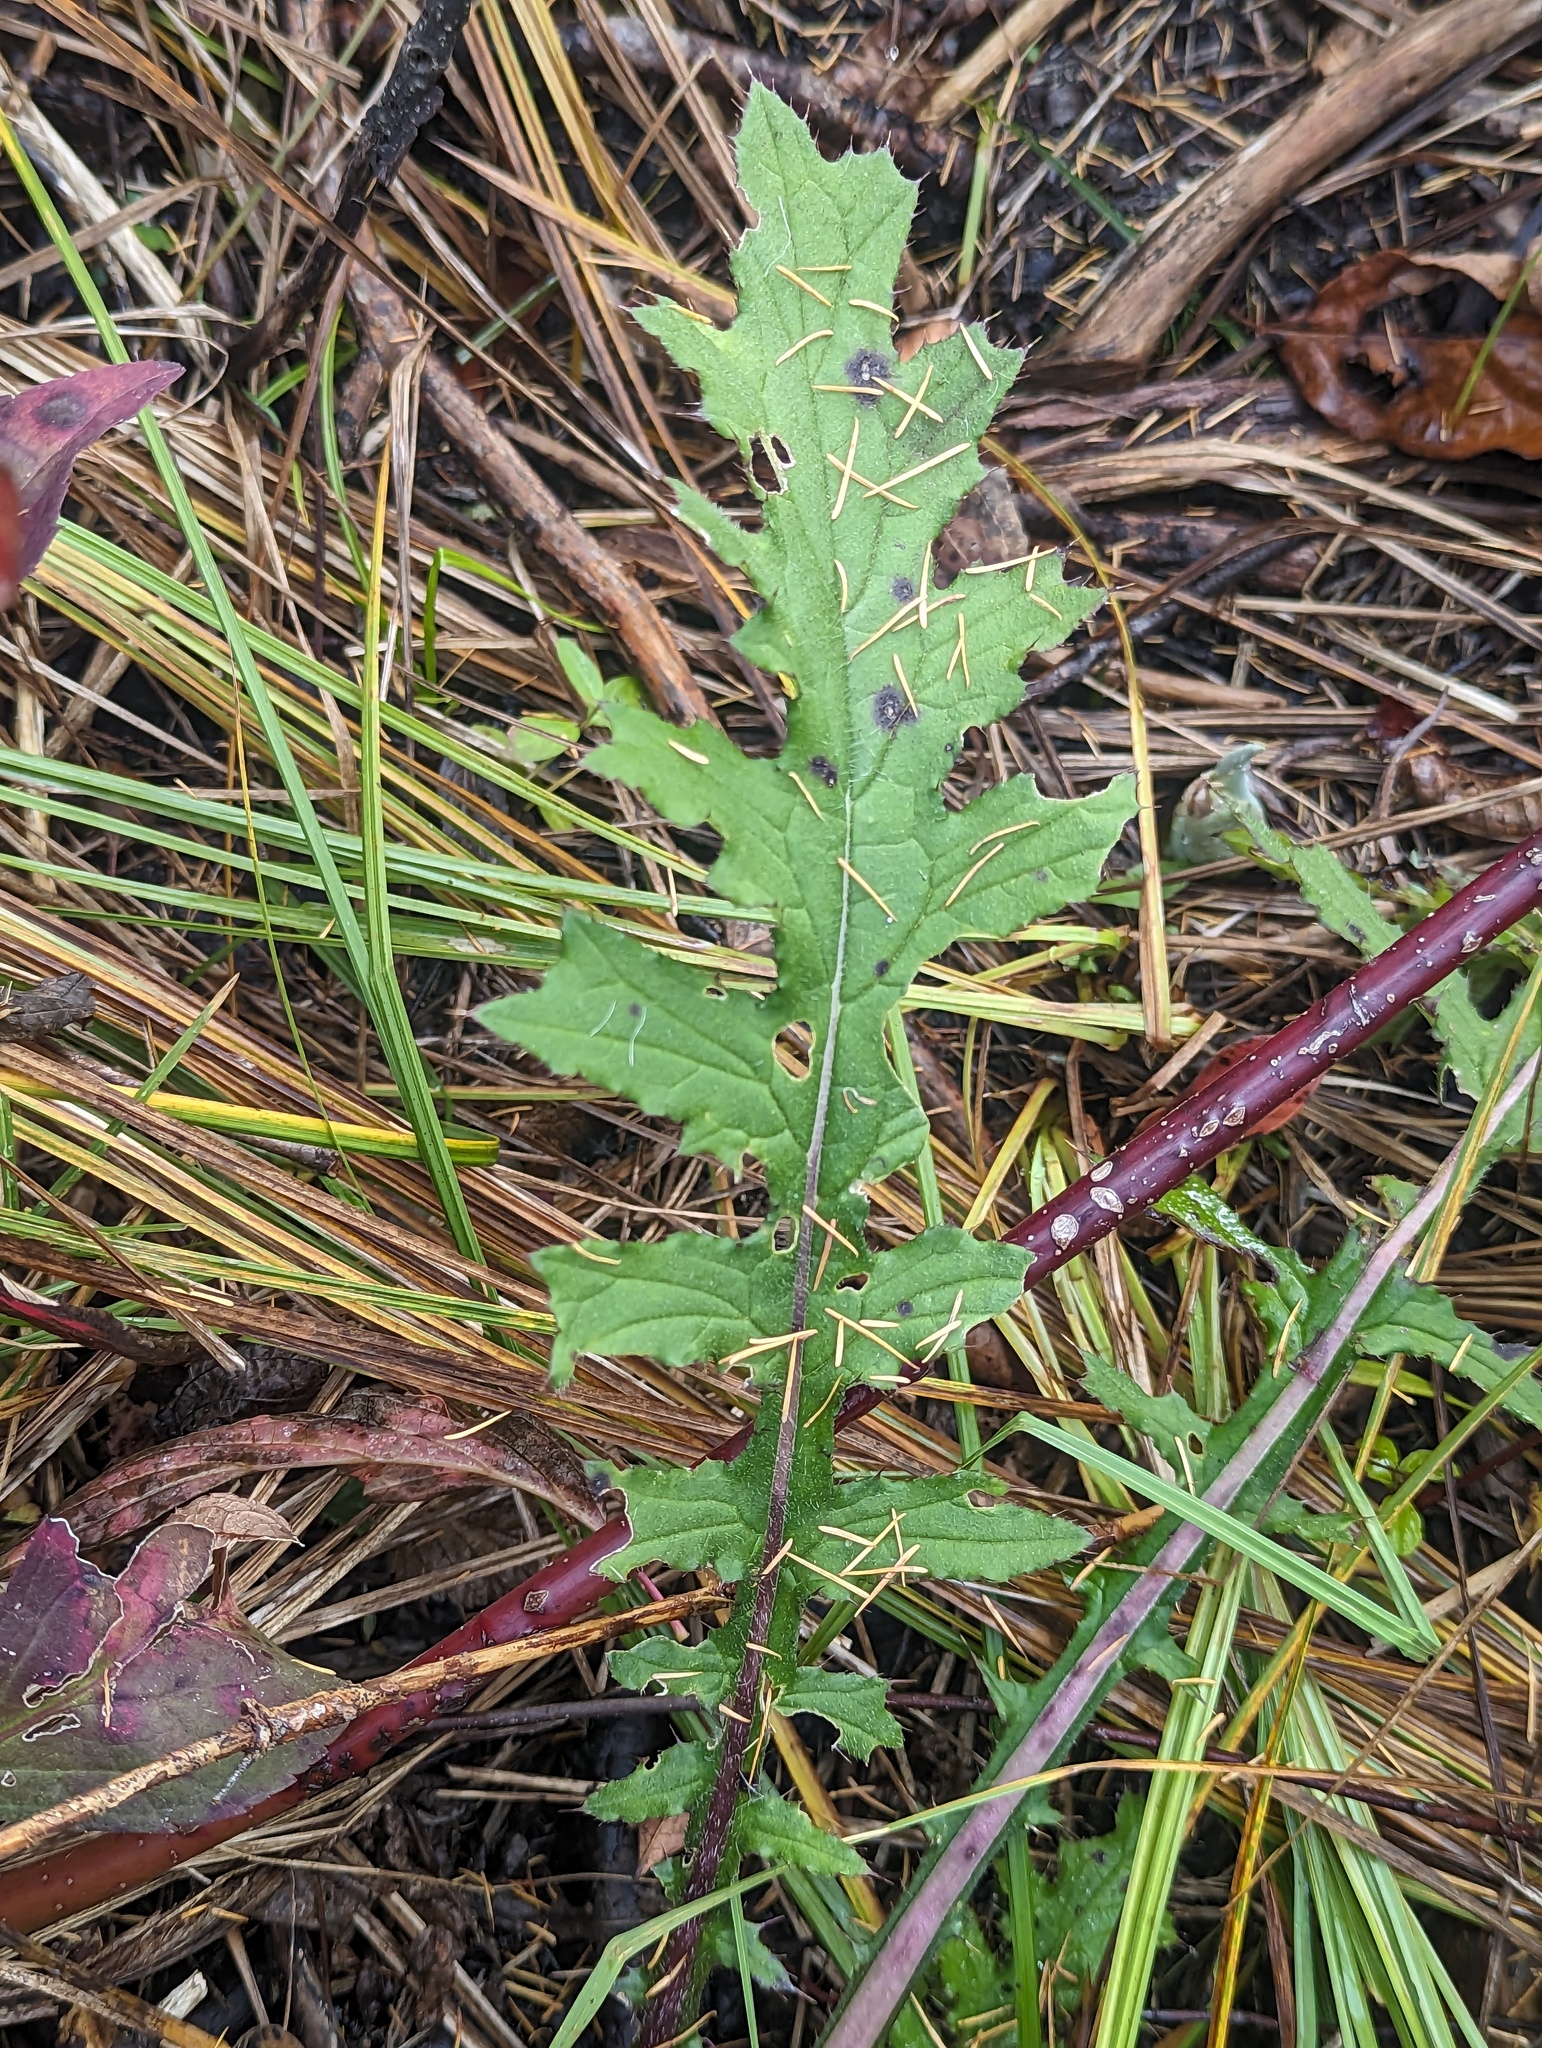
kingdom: Plantae
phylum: Tracheophyta
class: Magnoliopsida
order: Asterales
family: Asteraceae
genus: Cirsium
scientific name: Cirsium muticum
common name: Dunce-nettle
